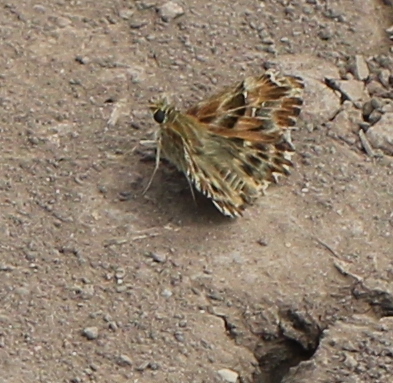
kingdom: Animalia
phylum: Arthropoda
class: Insecta
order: Lepidoptera
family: Hesperiidae
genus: Carcharodus
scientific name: Carcharodus alceae
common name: Mallow skipper
